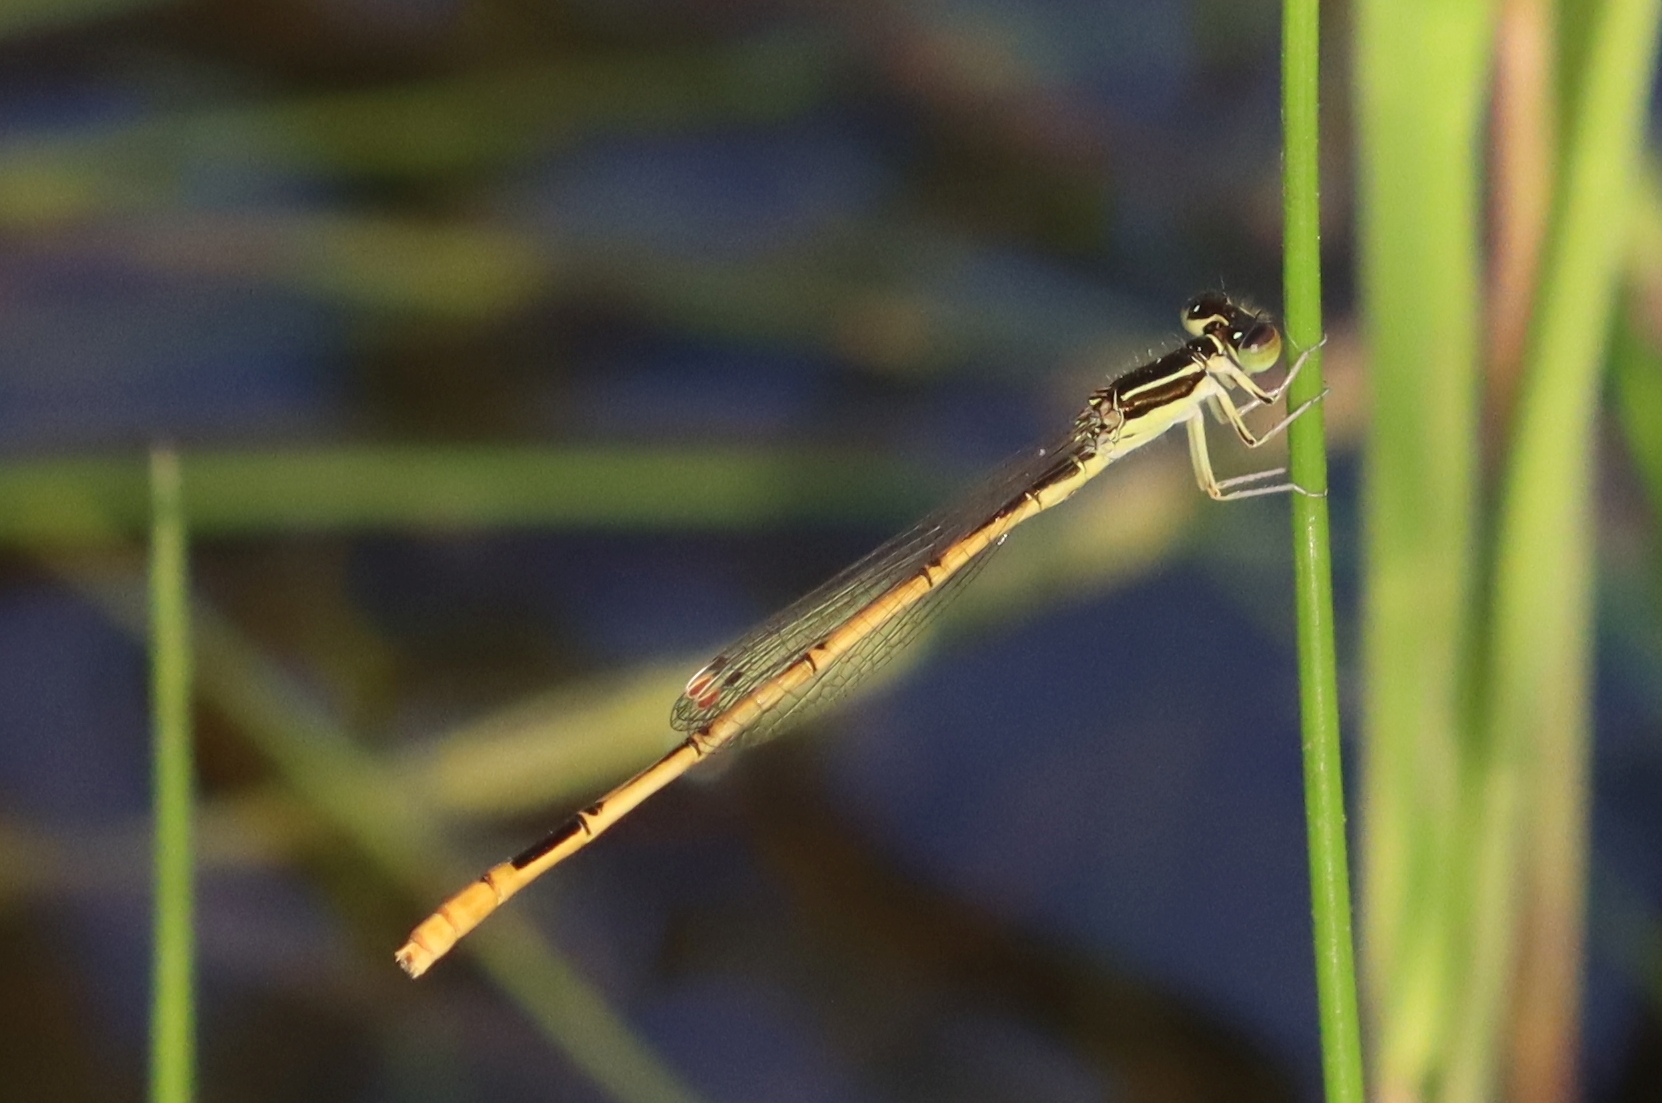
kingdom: Animalia
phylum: Arthropoda
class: Insecta
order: Odonata
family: Coenagrionidae
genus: Ischnura
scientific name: Ischnura hastata
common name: Citrine forktail
